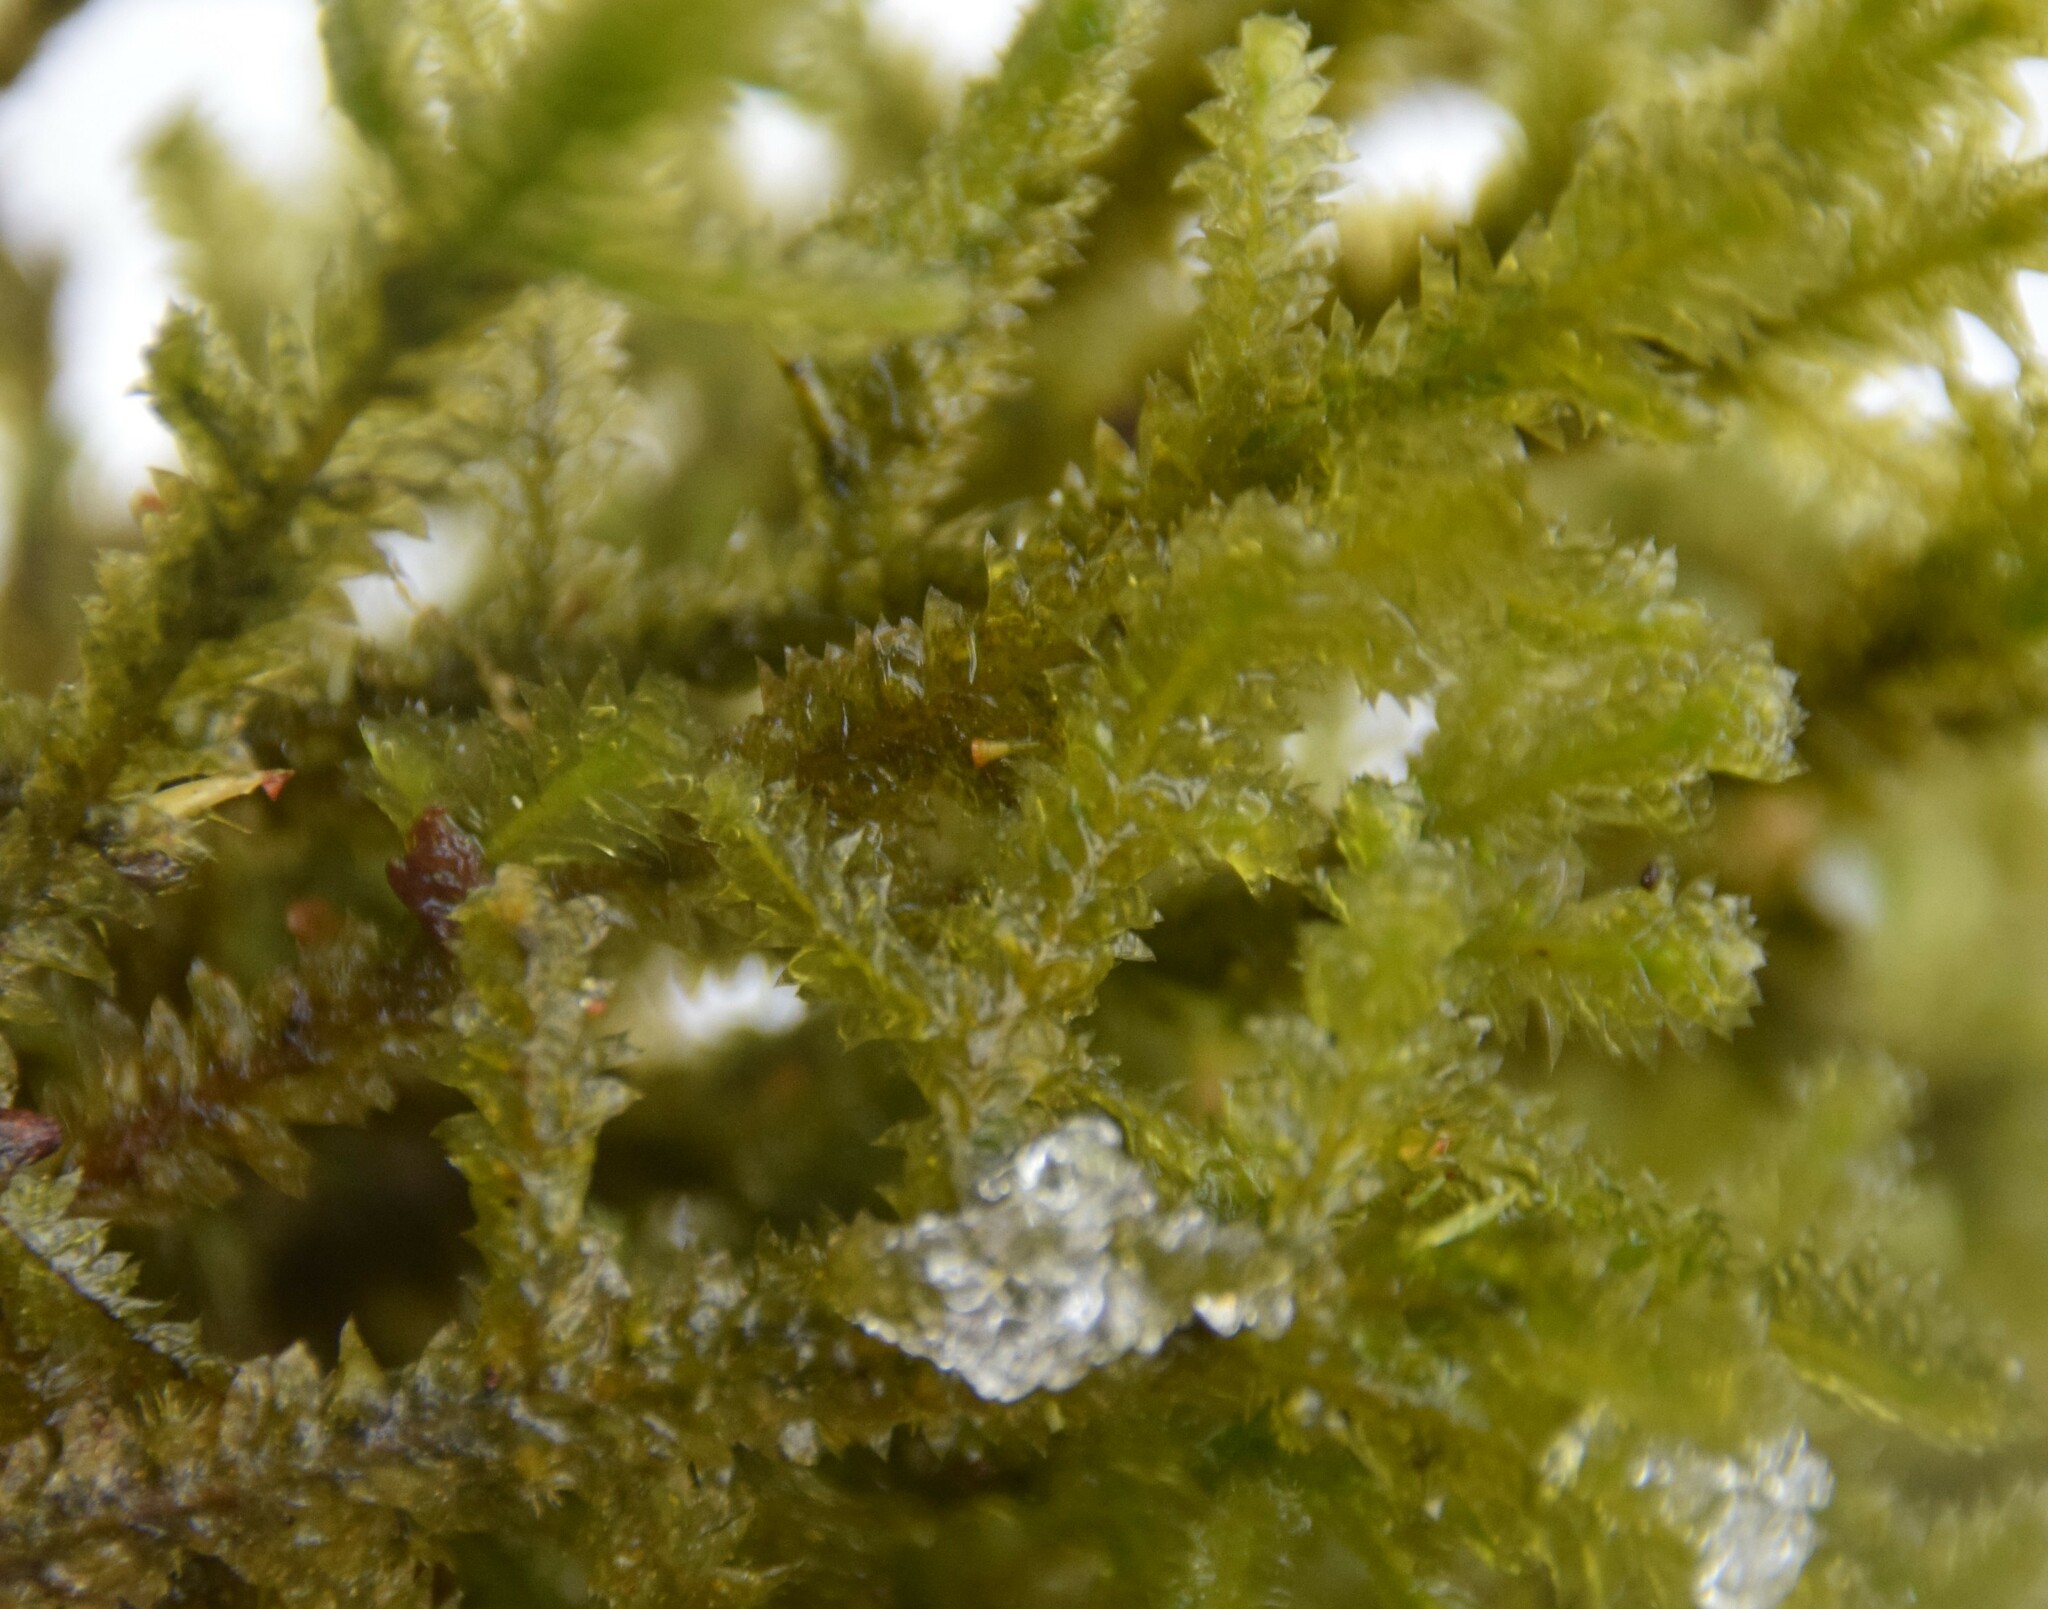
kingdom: Plantae
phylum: Bryophyta
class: Bryopsida
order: Hypnales
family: Neckeraceae
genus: Neckera
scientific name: Neckera pennata
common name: Feathery neckera
